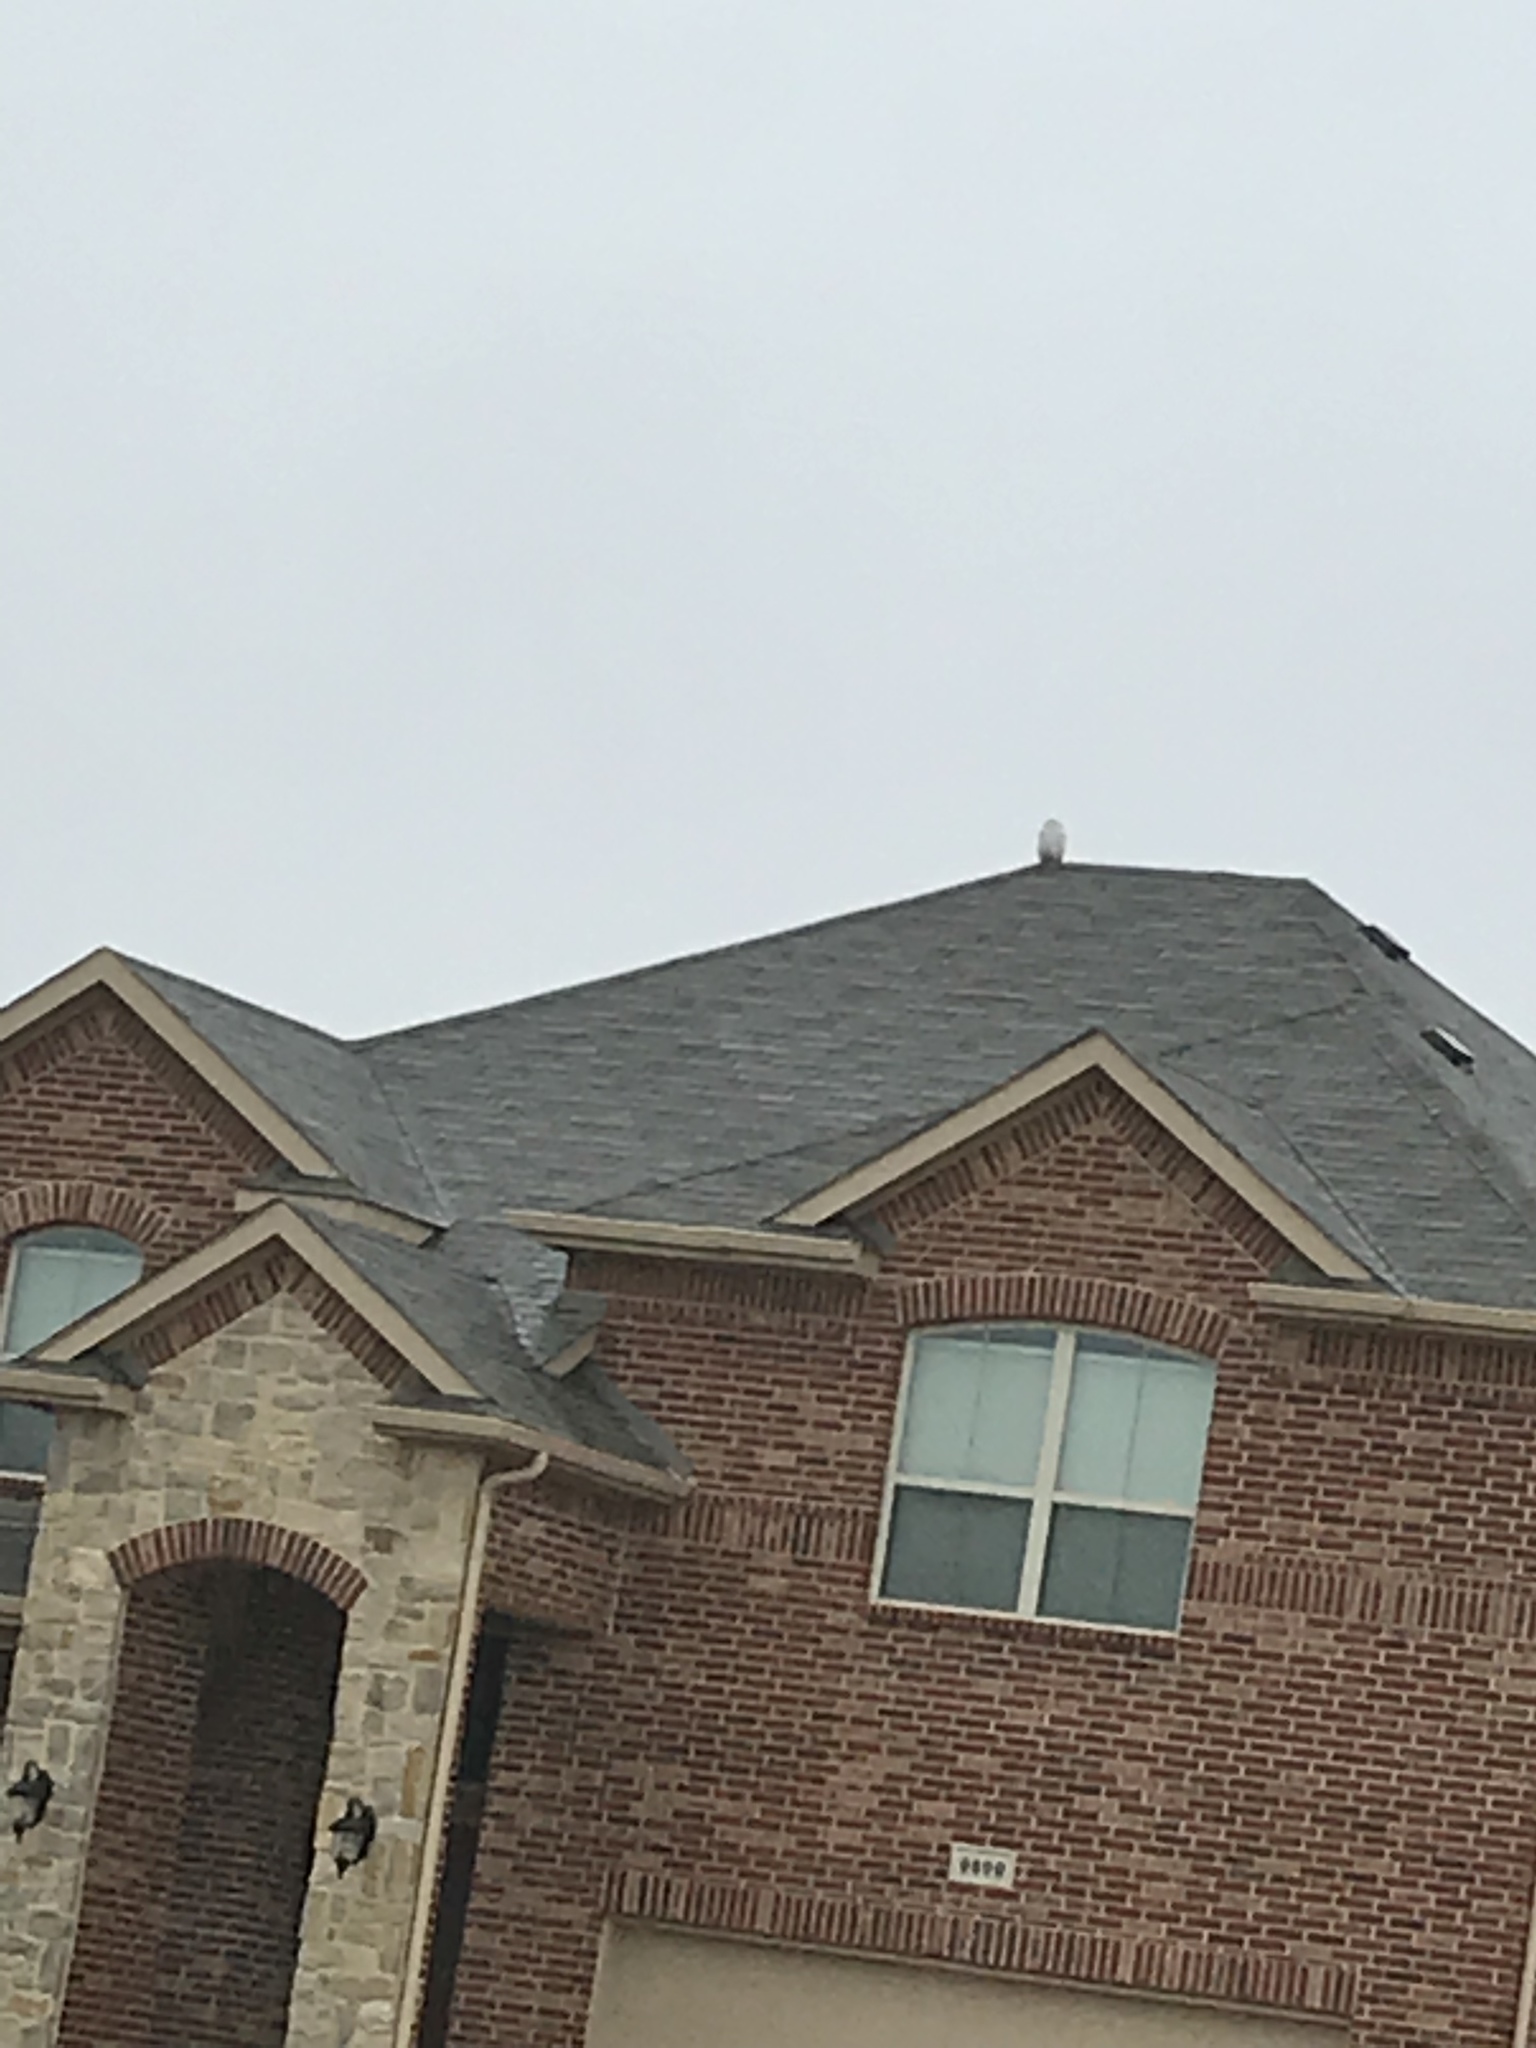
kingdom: Animalia
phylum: Chordata
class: Aves
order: Strigiformes
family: Strigidae
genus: Bubo
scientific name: Bubo scandiacus
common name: Snowy owl
